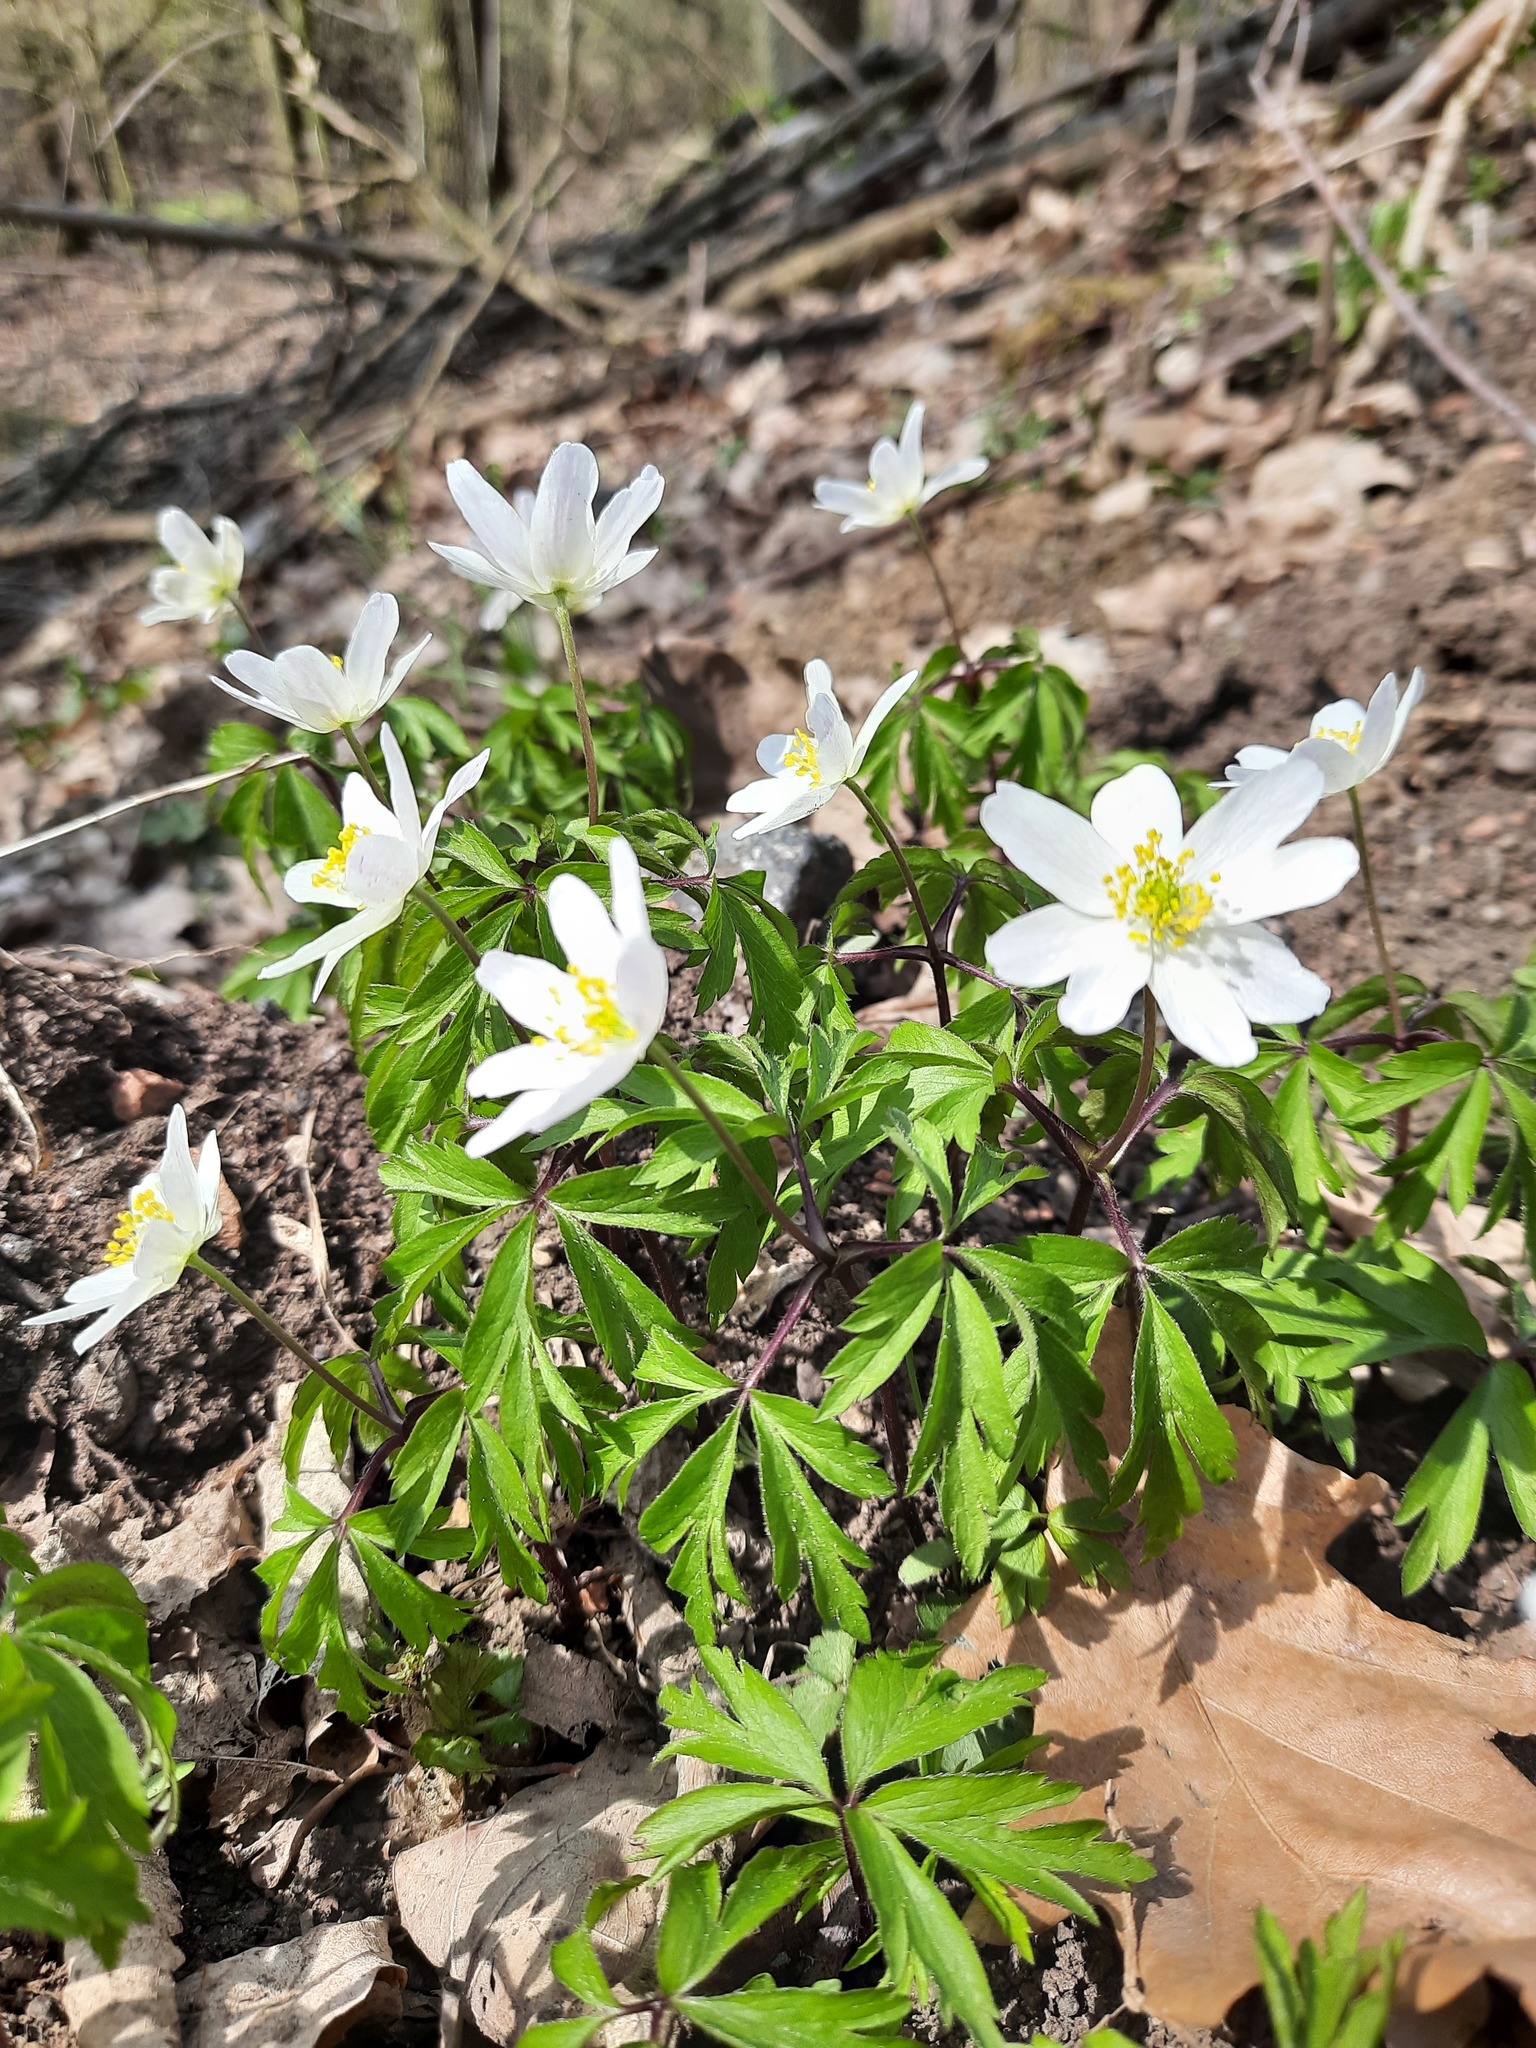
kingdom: Plantae
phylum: Tracheophyta
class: Magnoliopsida
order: Ranunculales
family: Ranunculaceae
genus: Anemone
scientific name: Anemone nemorosa
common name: Wood anemone
